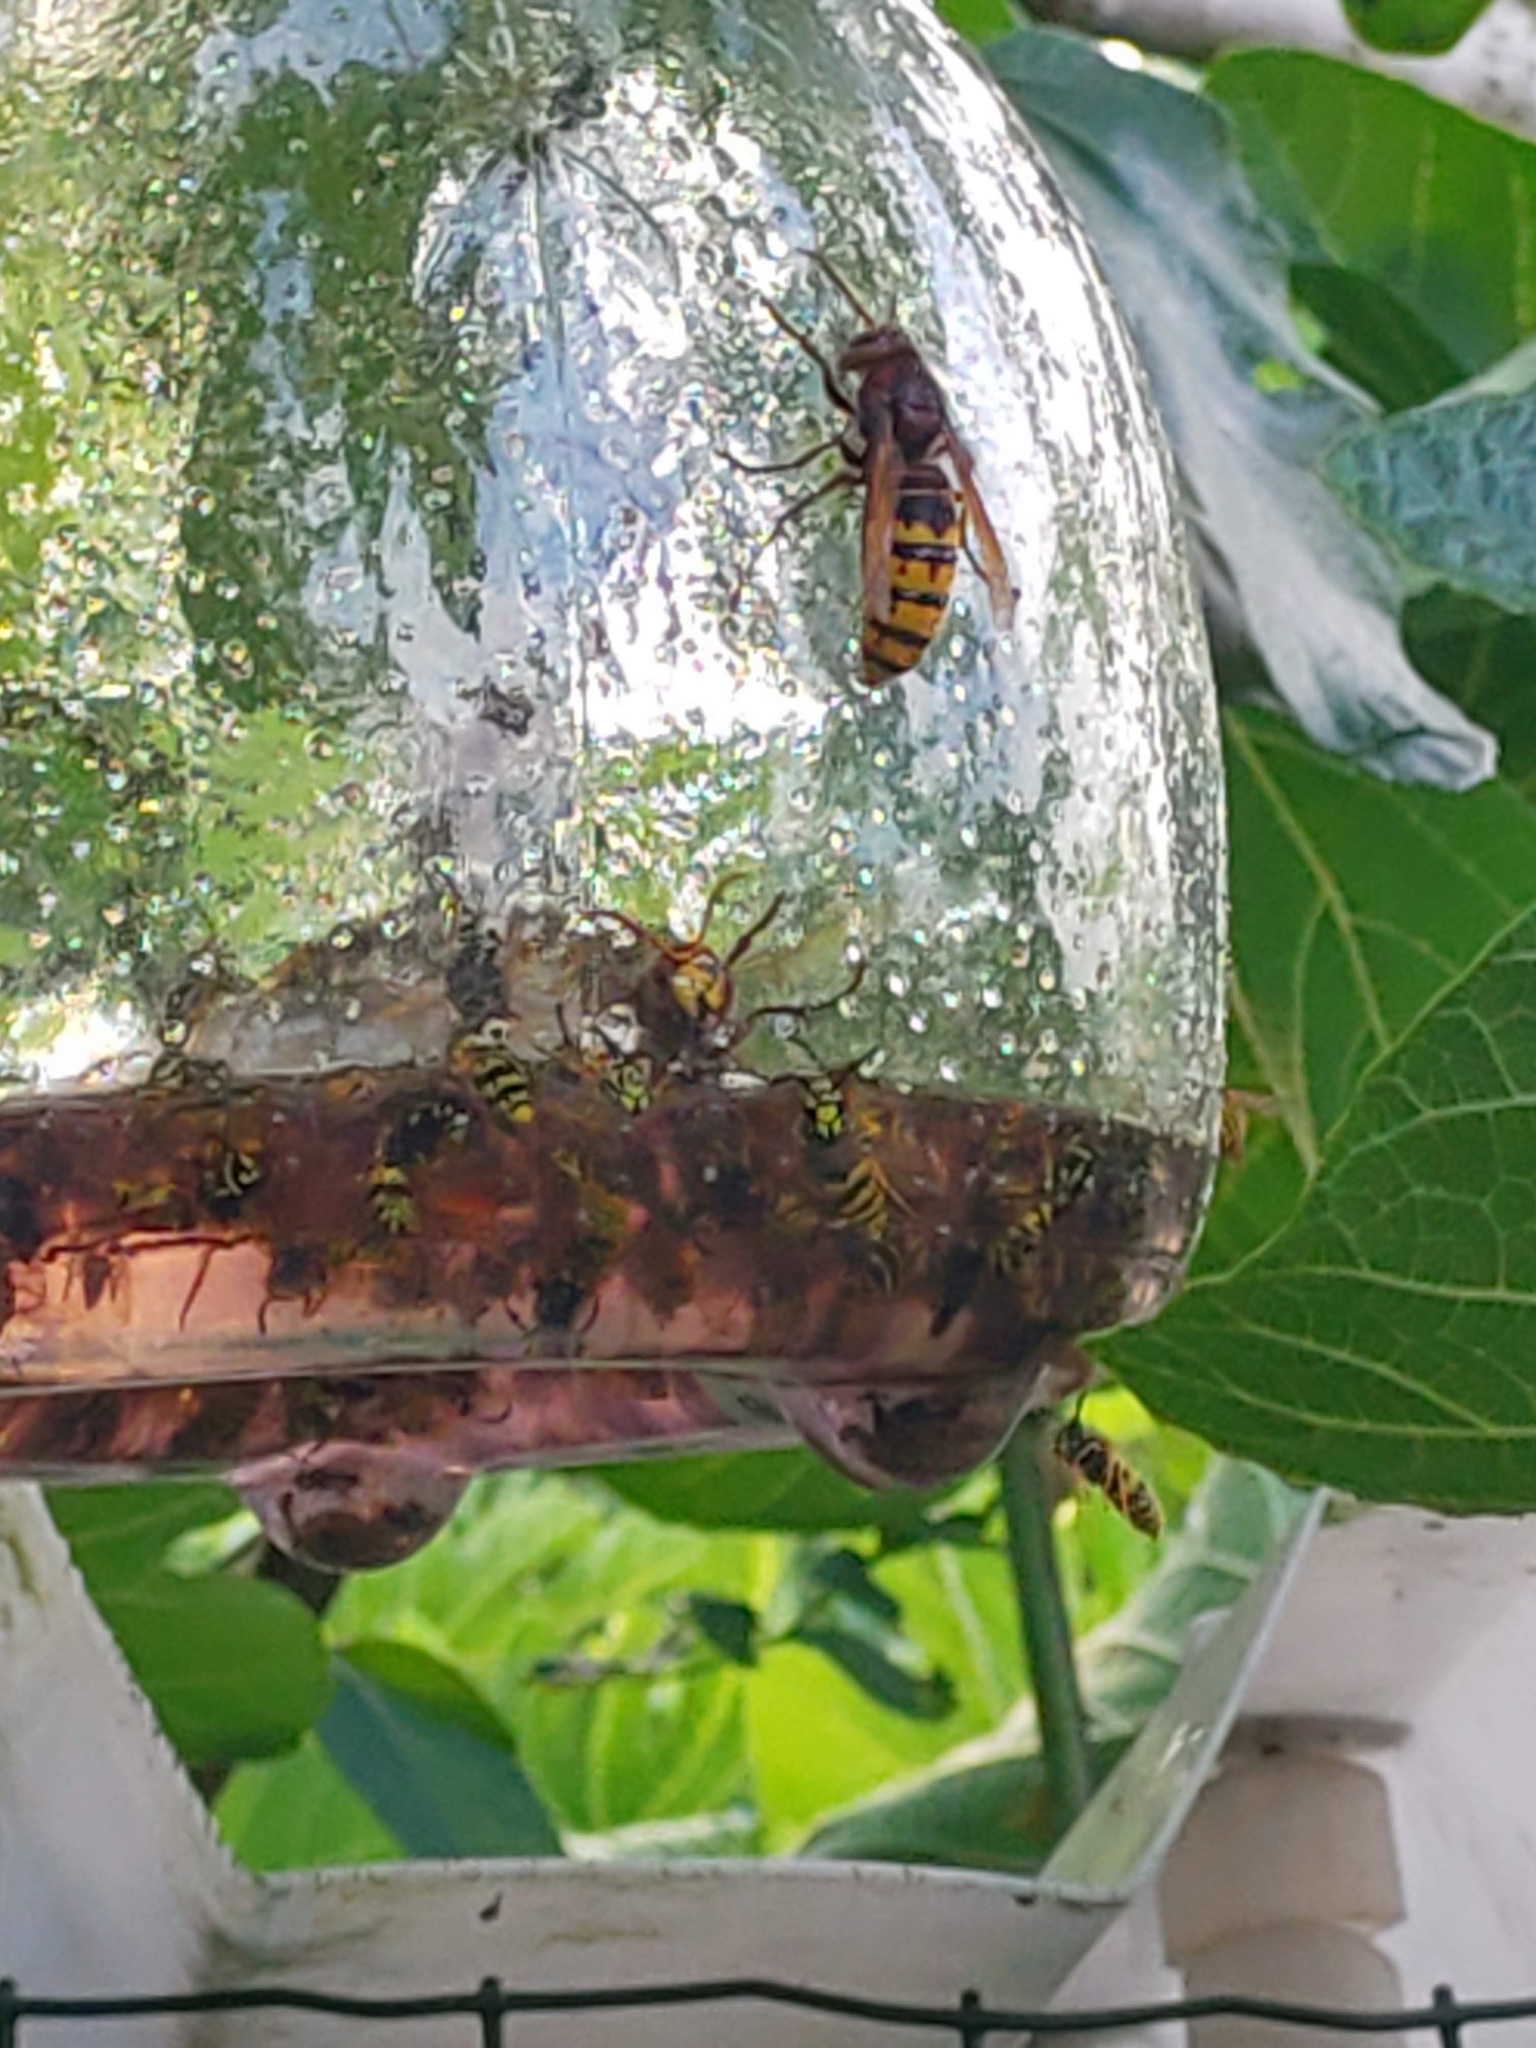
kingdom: Animalia
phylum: Arthropoda
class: Insecta
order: Hymenoptera
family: Vespidae
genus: Vespa
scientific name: Vespa crabro
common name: Hornet
